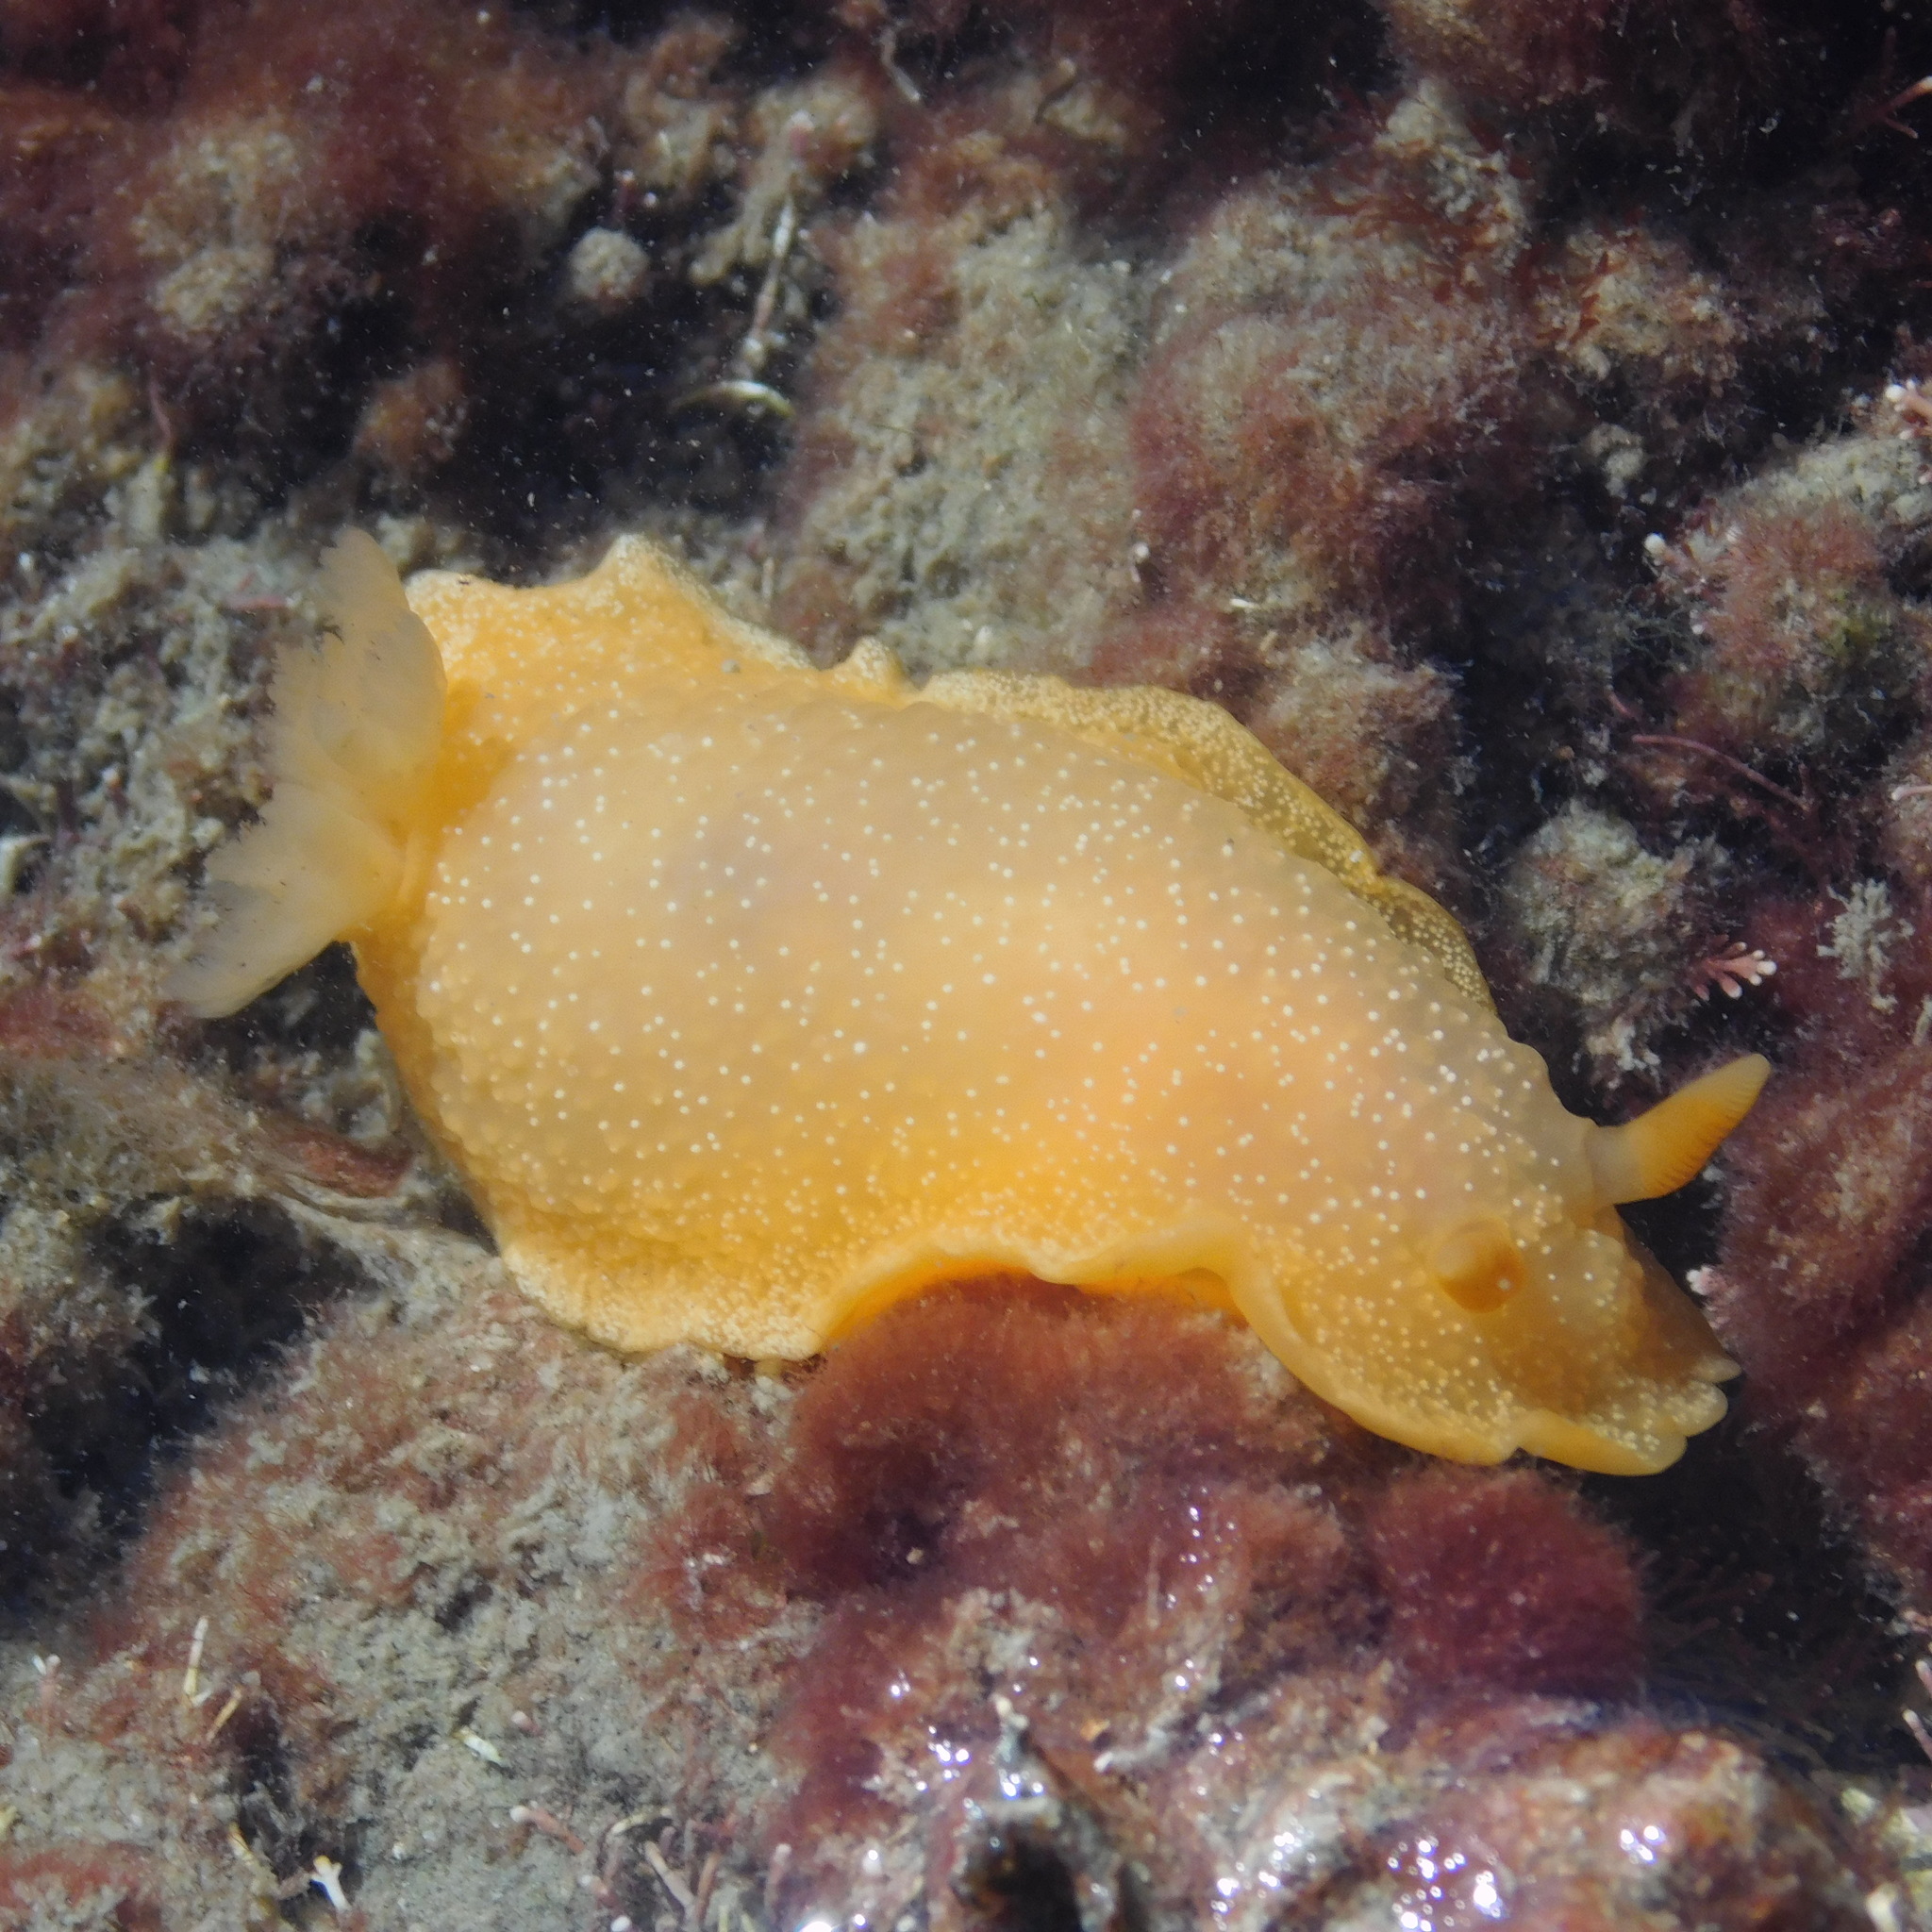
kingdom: Animalia
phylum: Mollusca
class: Gastropoda
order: Nudibranchia
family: Dendrodorididae
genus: Dendrodoris
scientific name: Dendrodoris citrina
